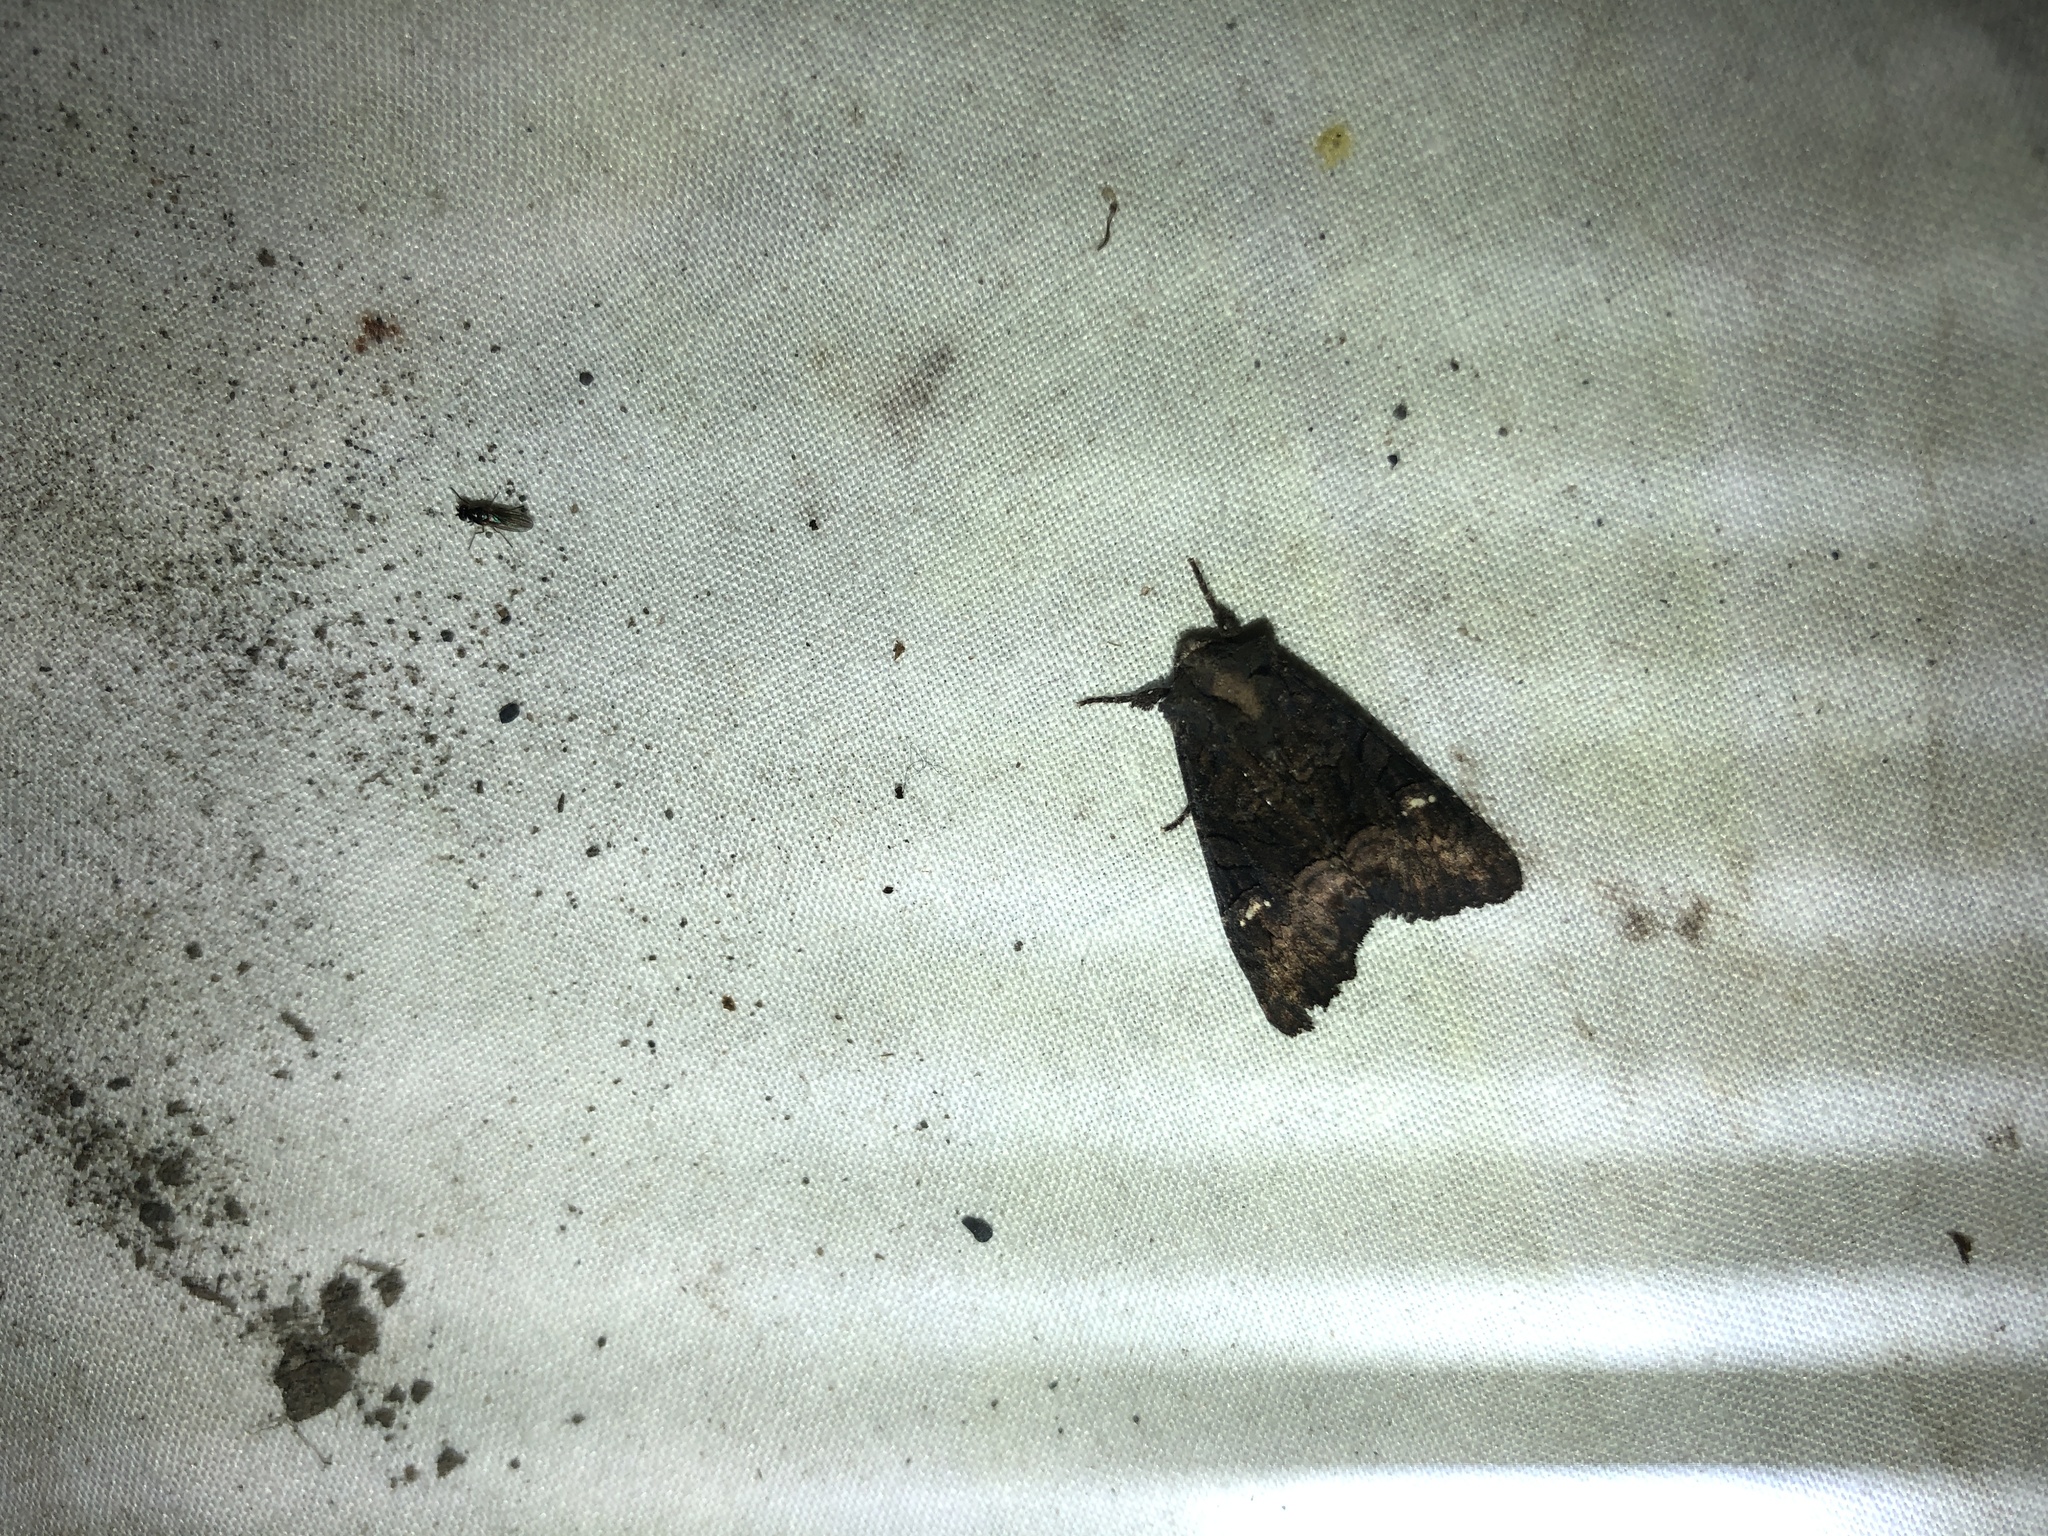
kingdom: Animalia
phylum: Arthropoda
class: Insecta
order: Lepidoptera
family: Noctuidae
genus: Meterana
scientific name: Meterana asterope
